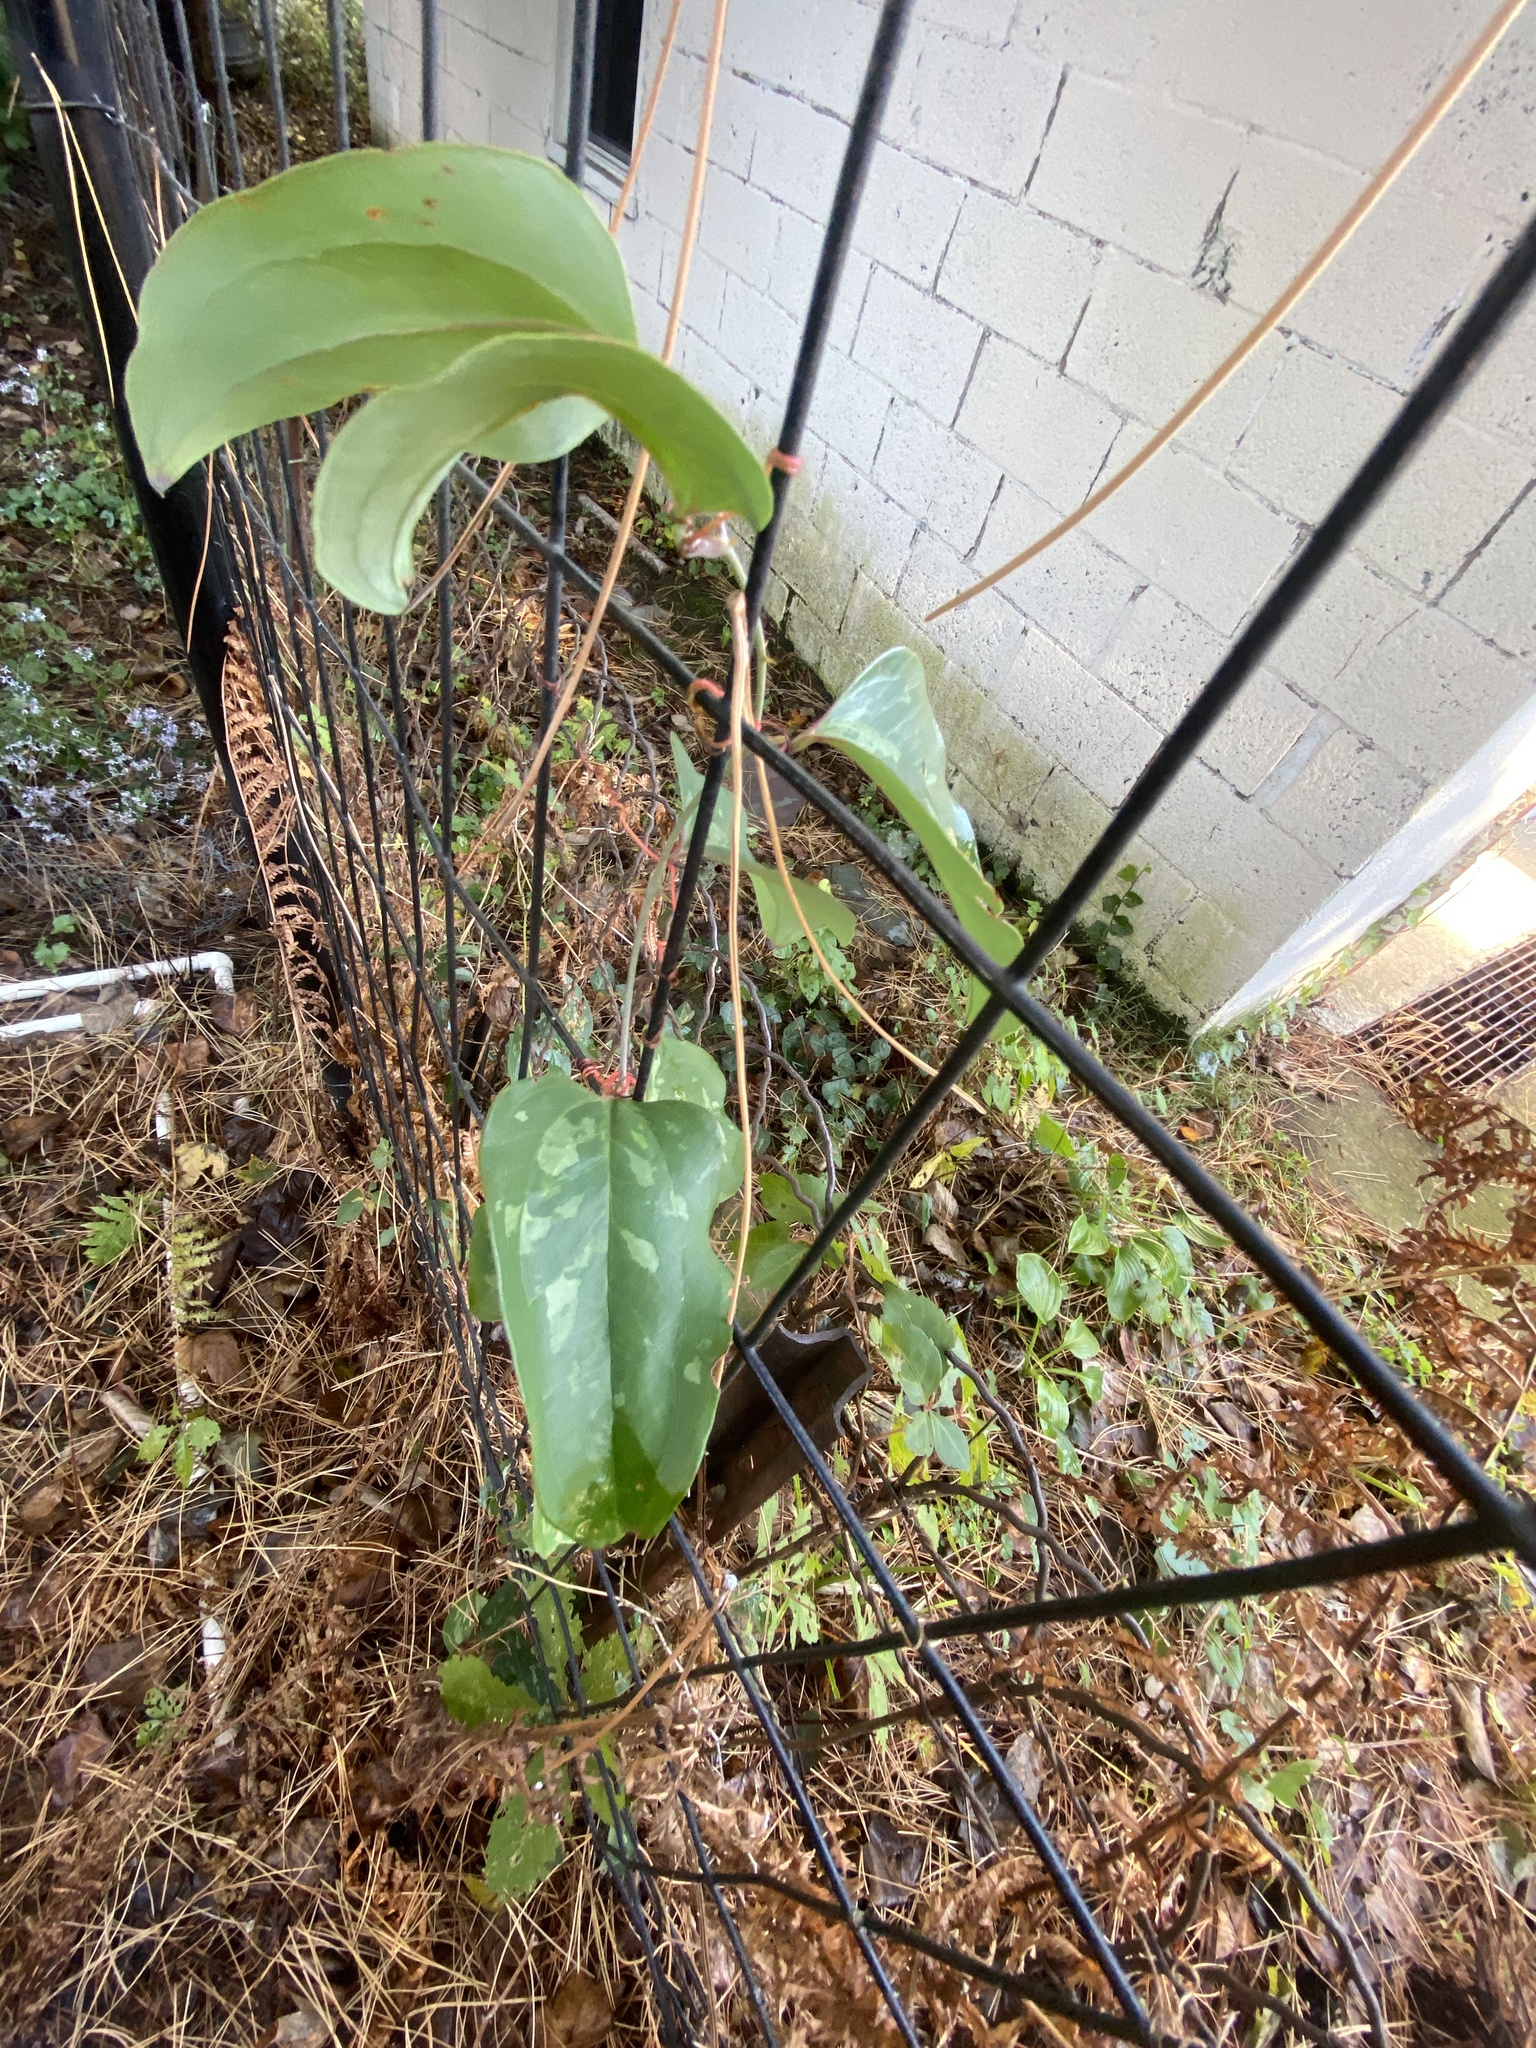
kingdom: Plantae
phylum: Tracheophyta
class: Liliopsida
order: Liliales
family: Smilacaceae
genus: Smilax
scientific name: Smilax glauca
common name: Cat greenbrier
